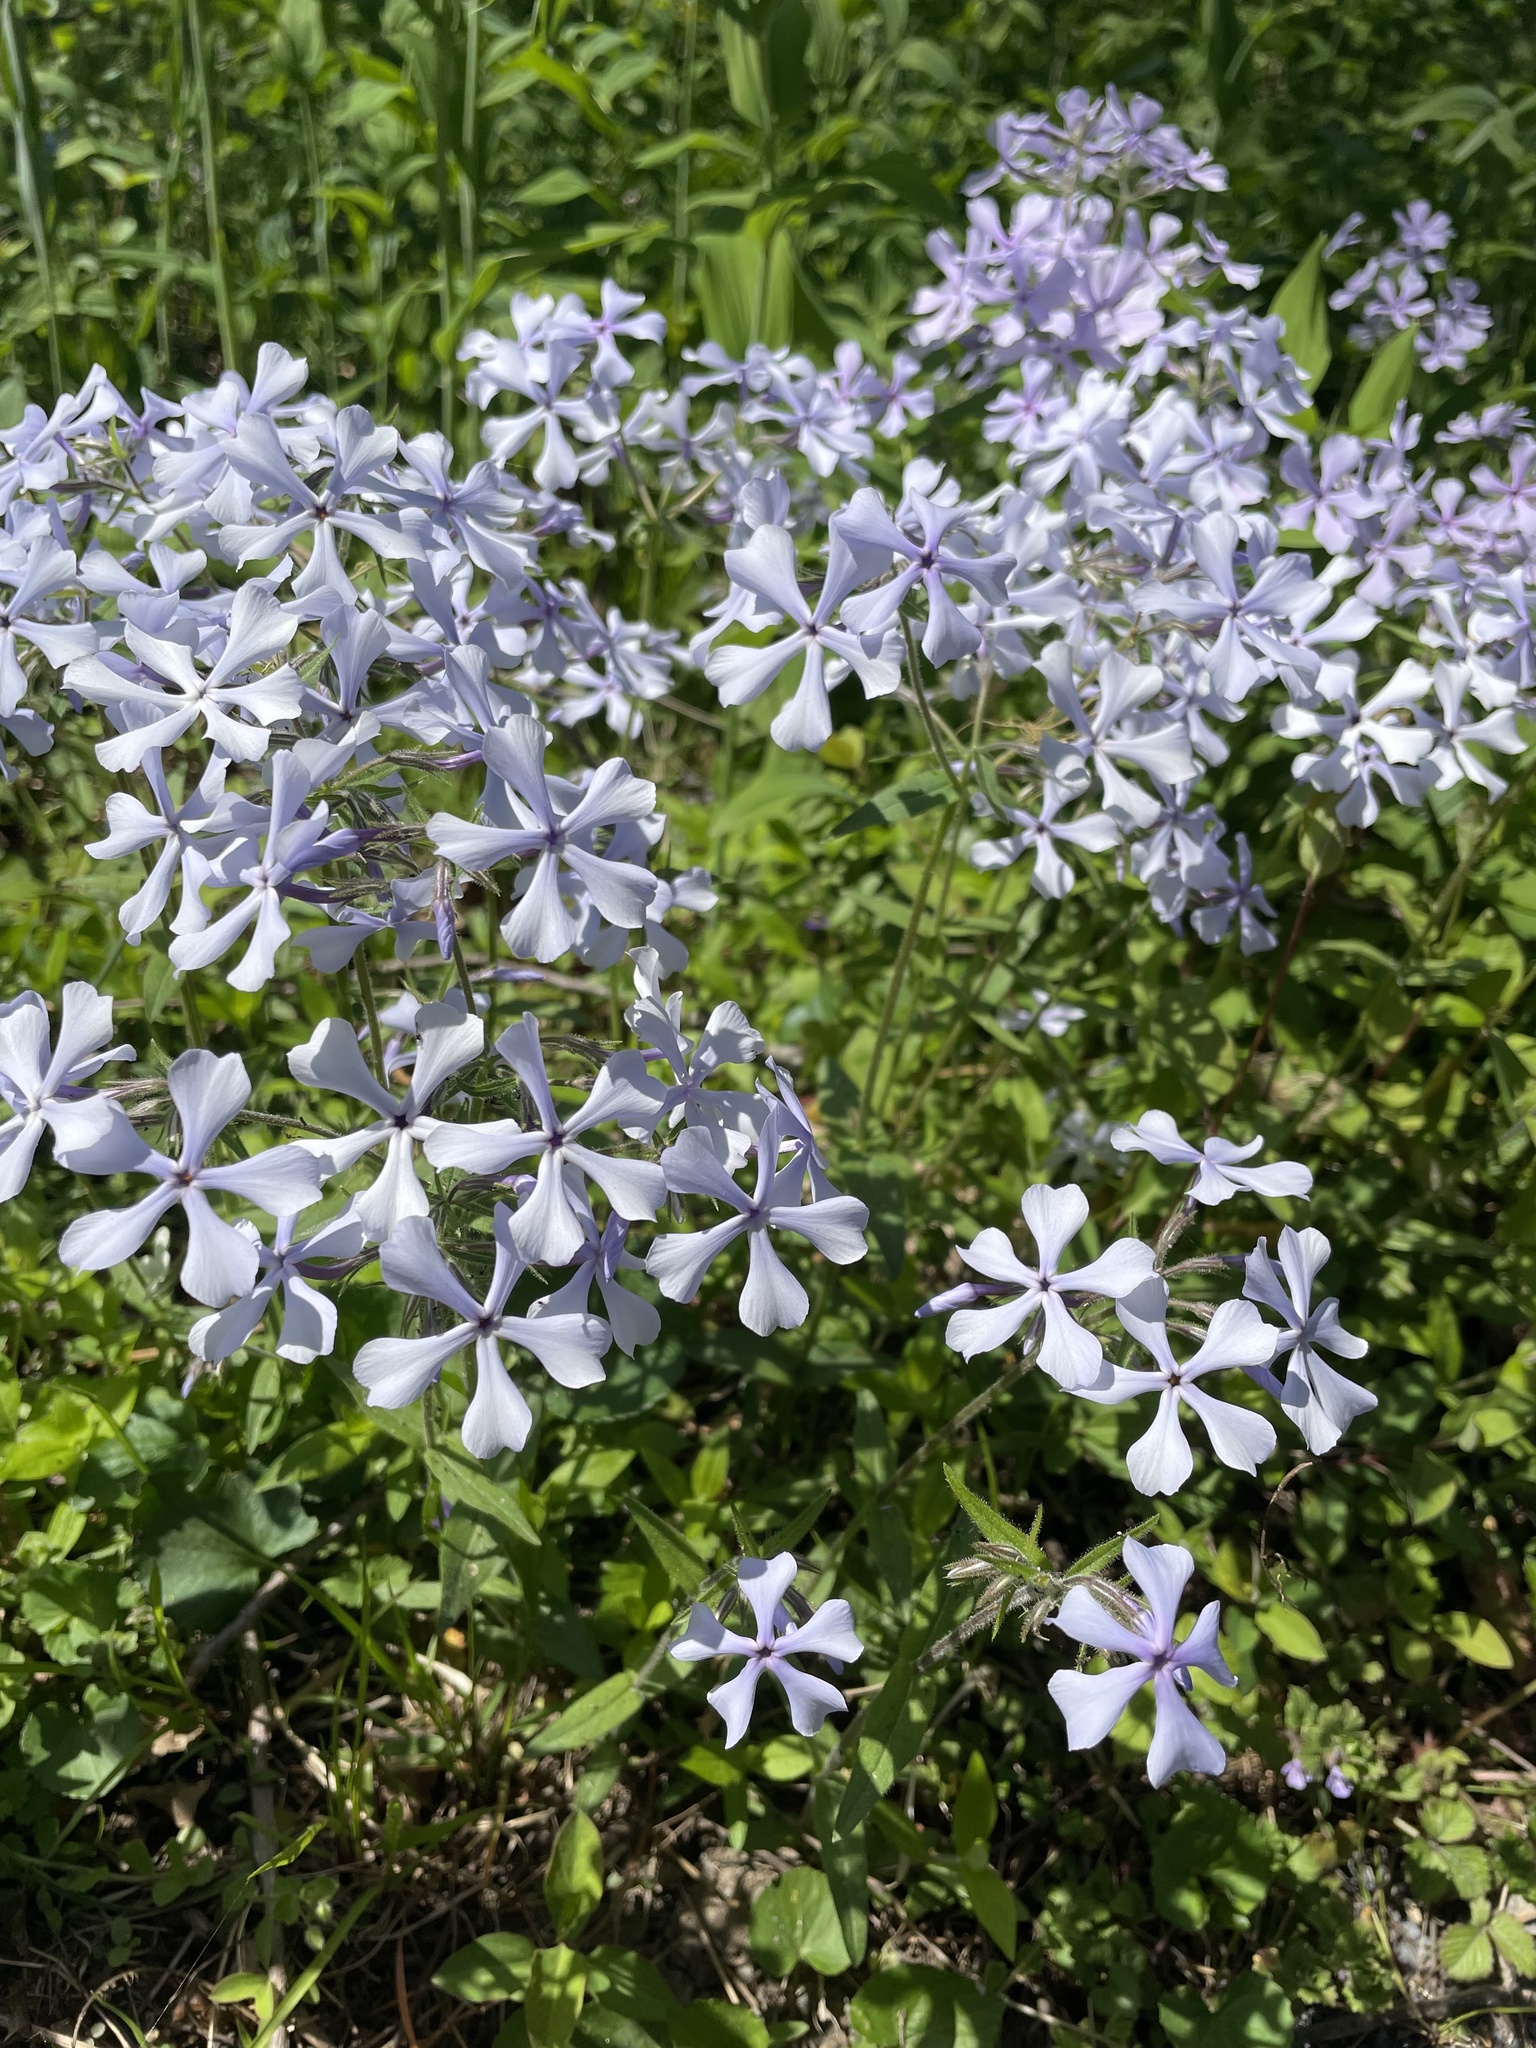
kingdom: Plantae
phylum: Tracheophyta
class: Magnoliopsida
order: Ericales
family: Polemoniaceae
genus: Phlox
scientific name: Phlox divaricata
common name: Blue phlox
